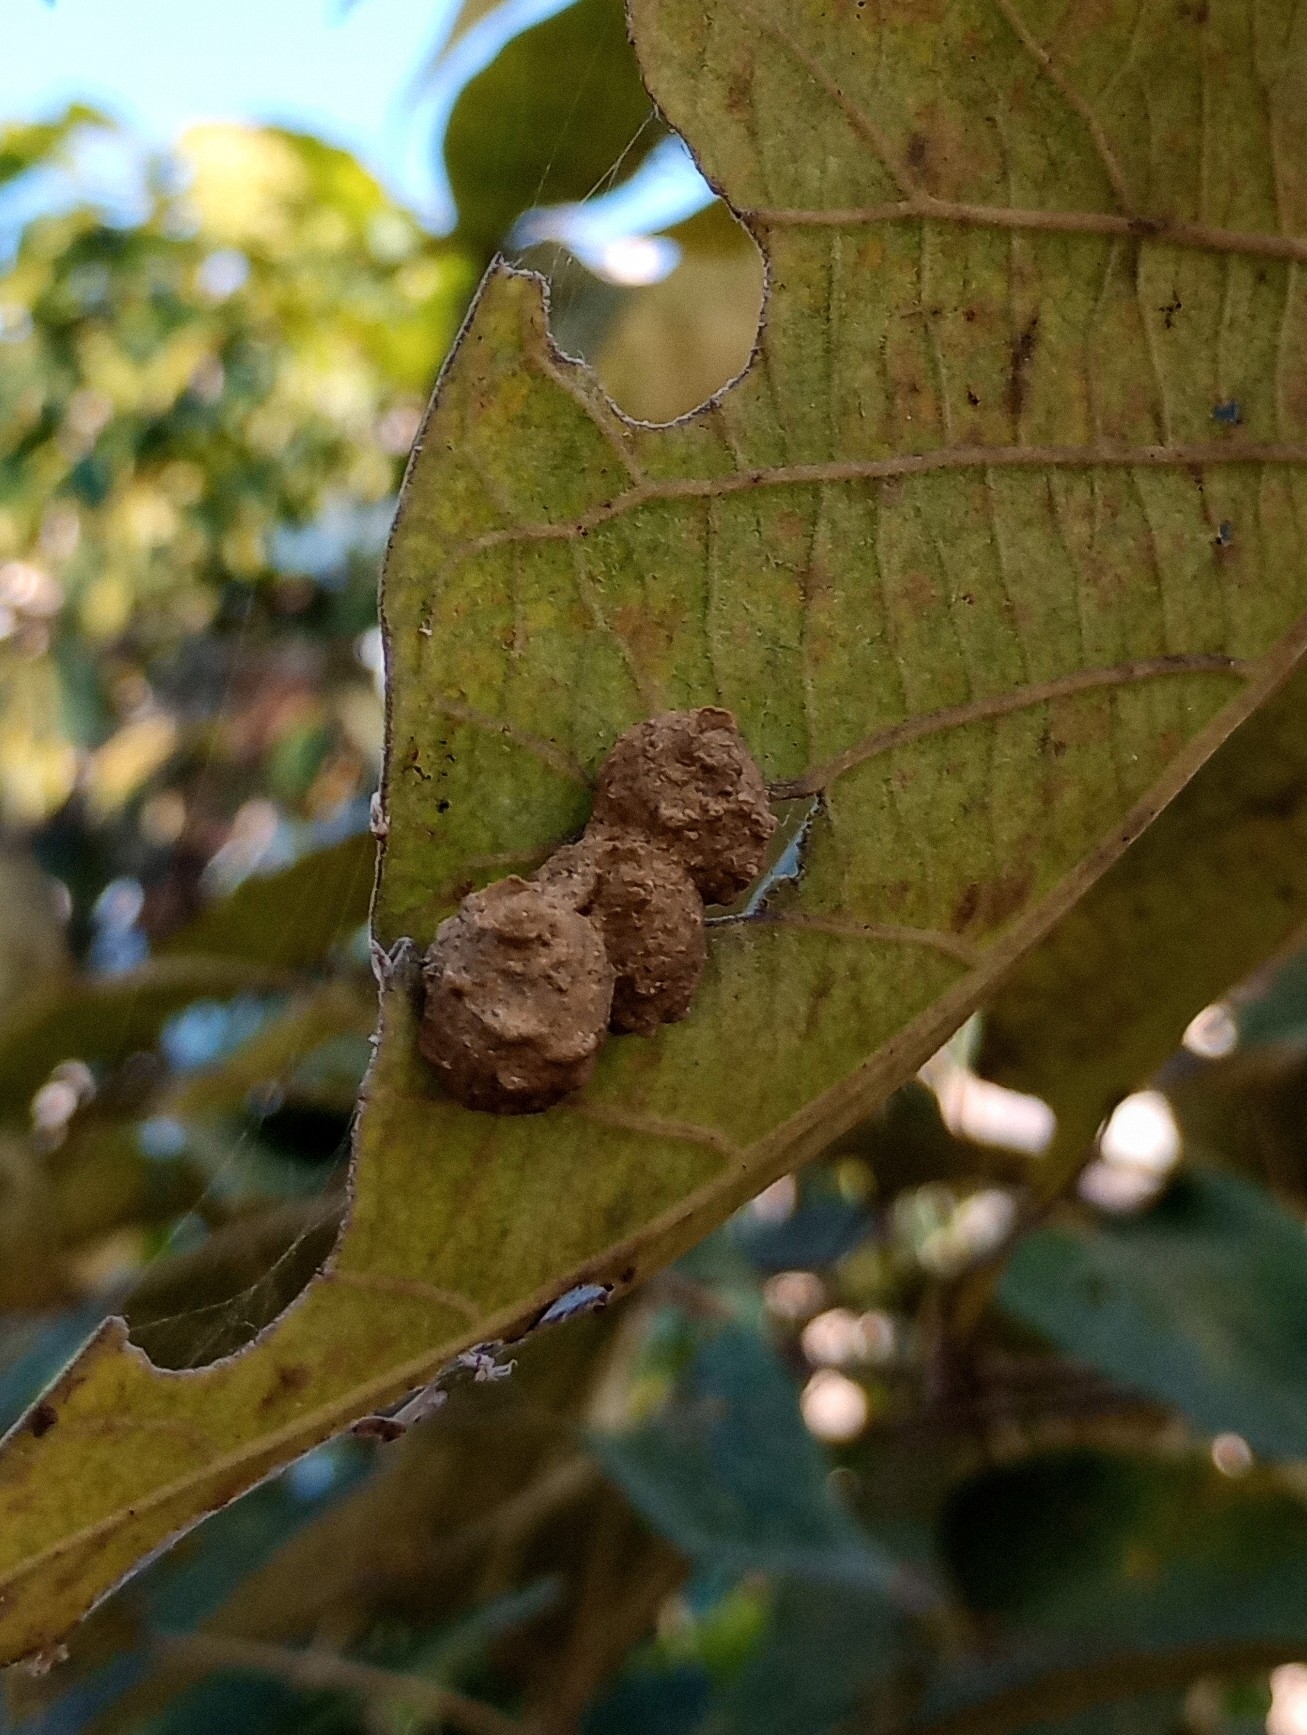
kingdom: Animalia
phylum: Arthropoda
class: Insecta
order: Hymenoptera
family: Eumenidae
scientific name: Eumenidae
